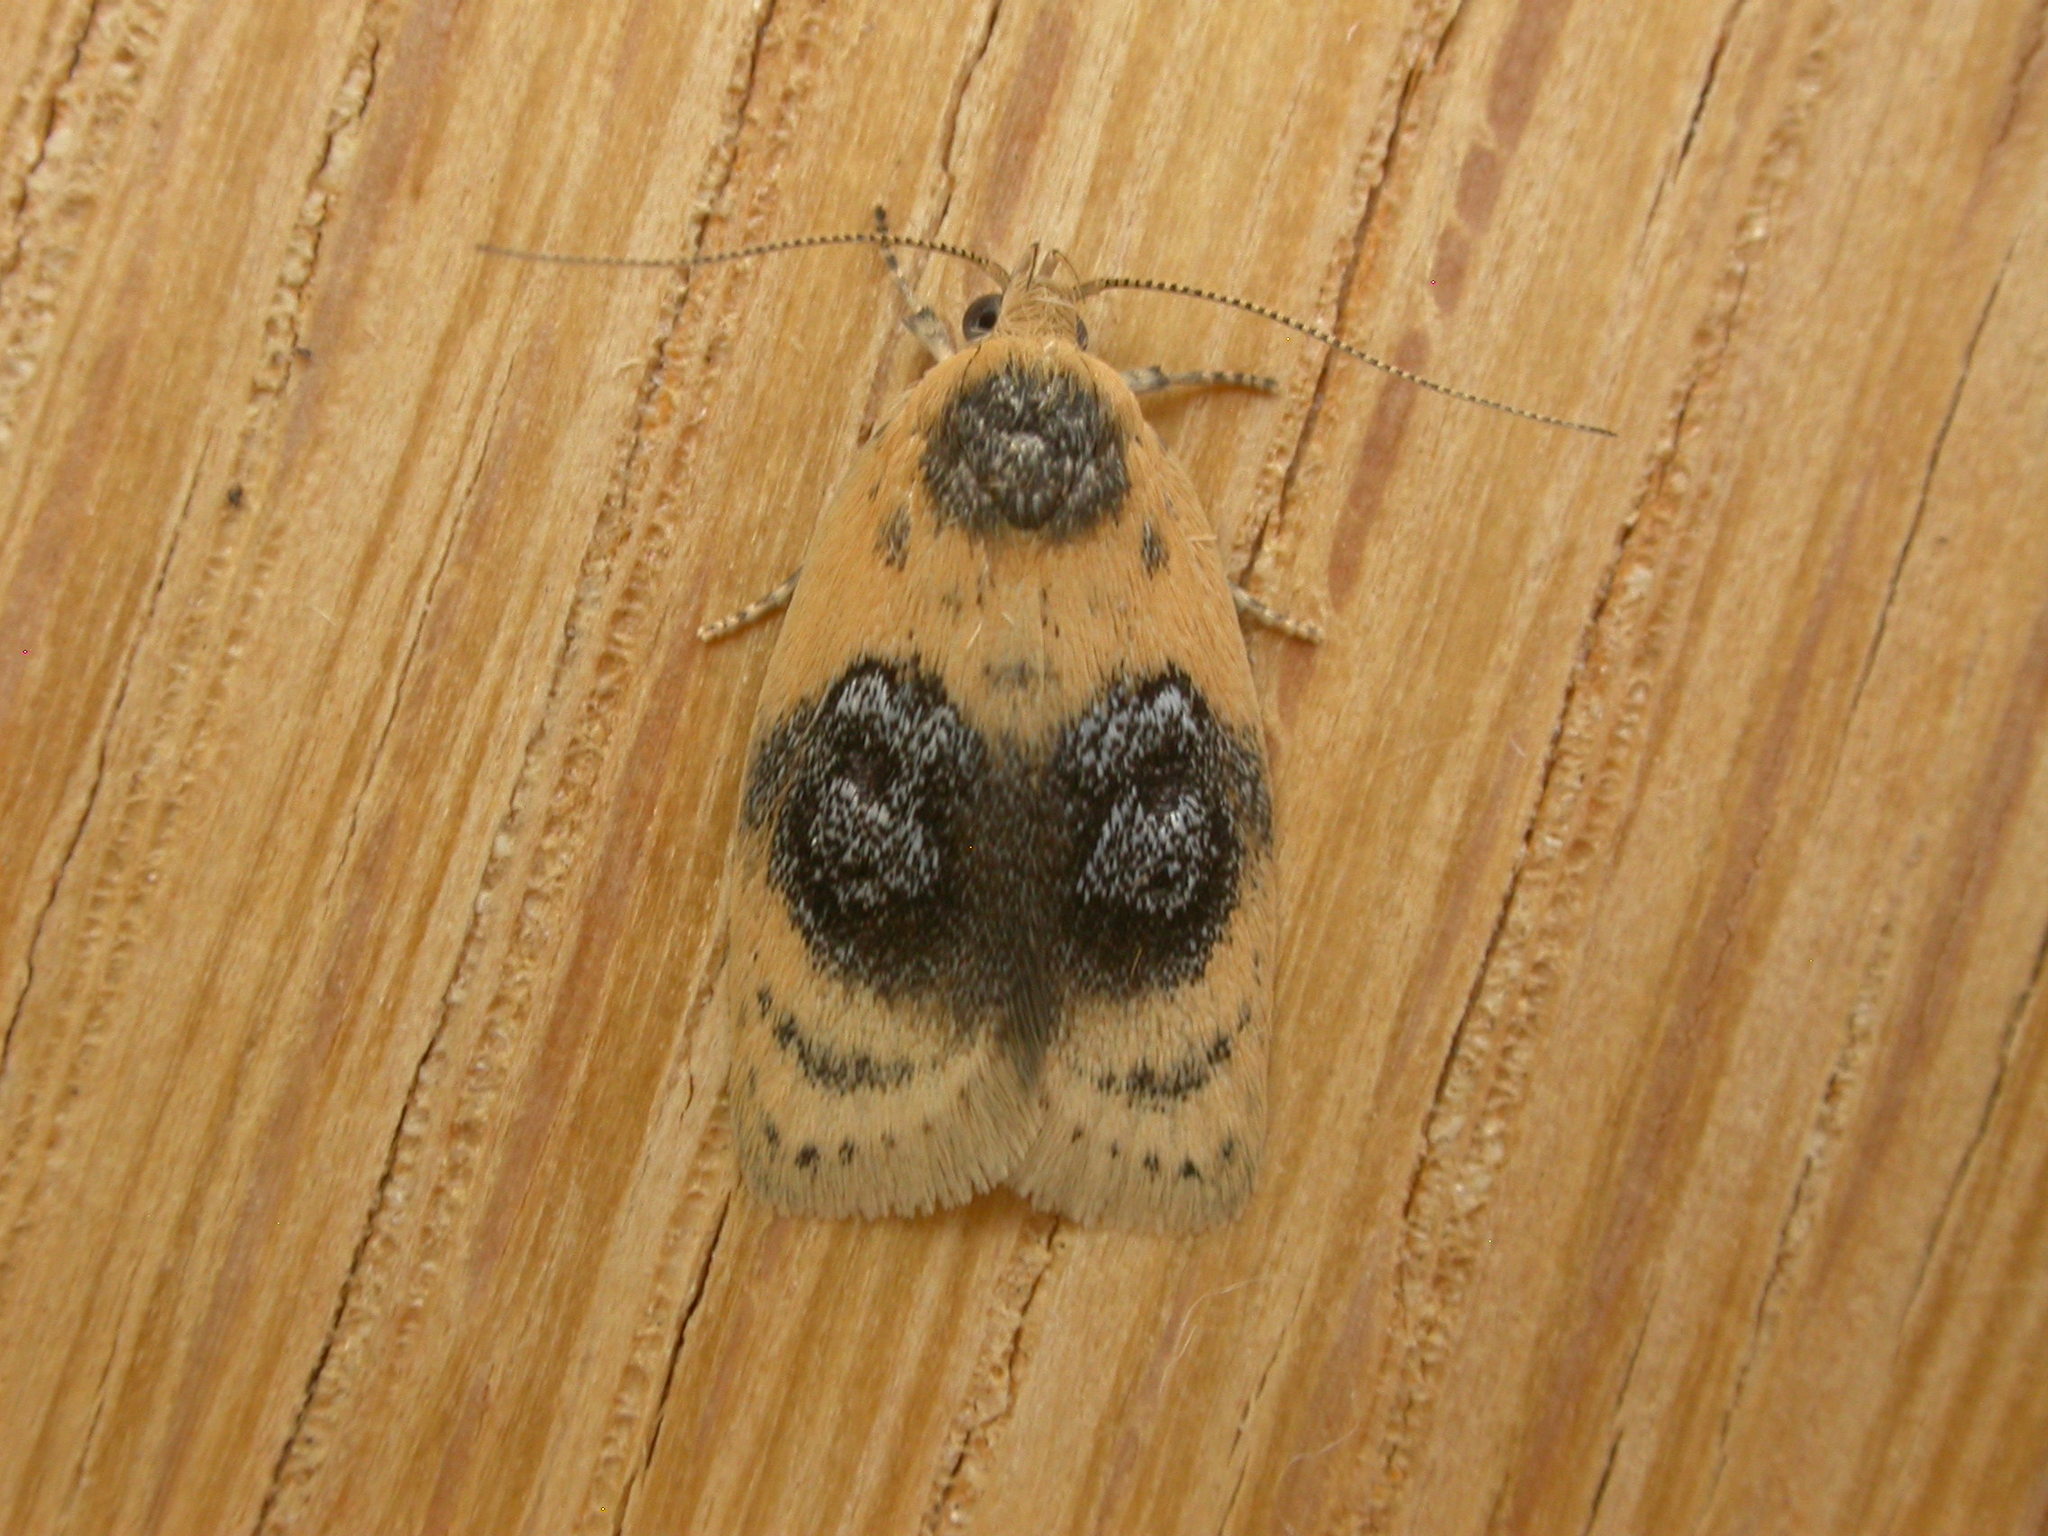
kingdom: Animalia
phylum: Arthropoda
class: Insecta
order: Lepidoptera
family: Oecophoridae
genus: Garrha
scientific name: Garrha ocellifera
